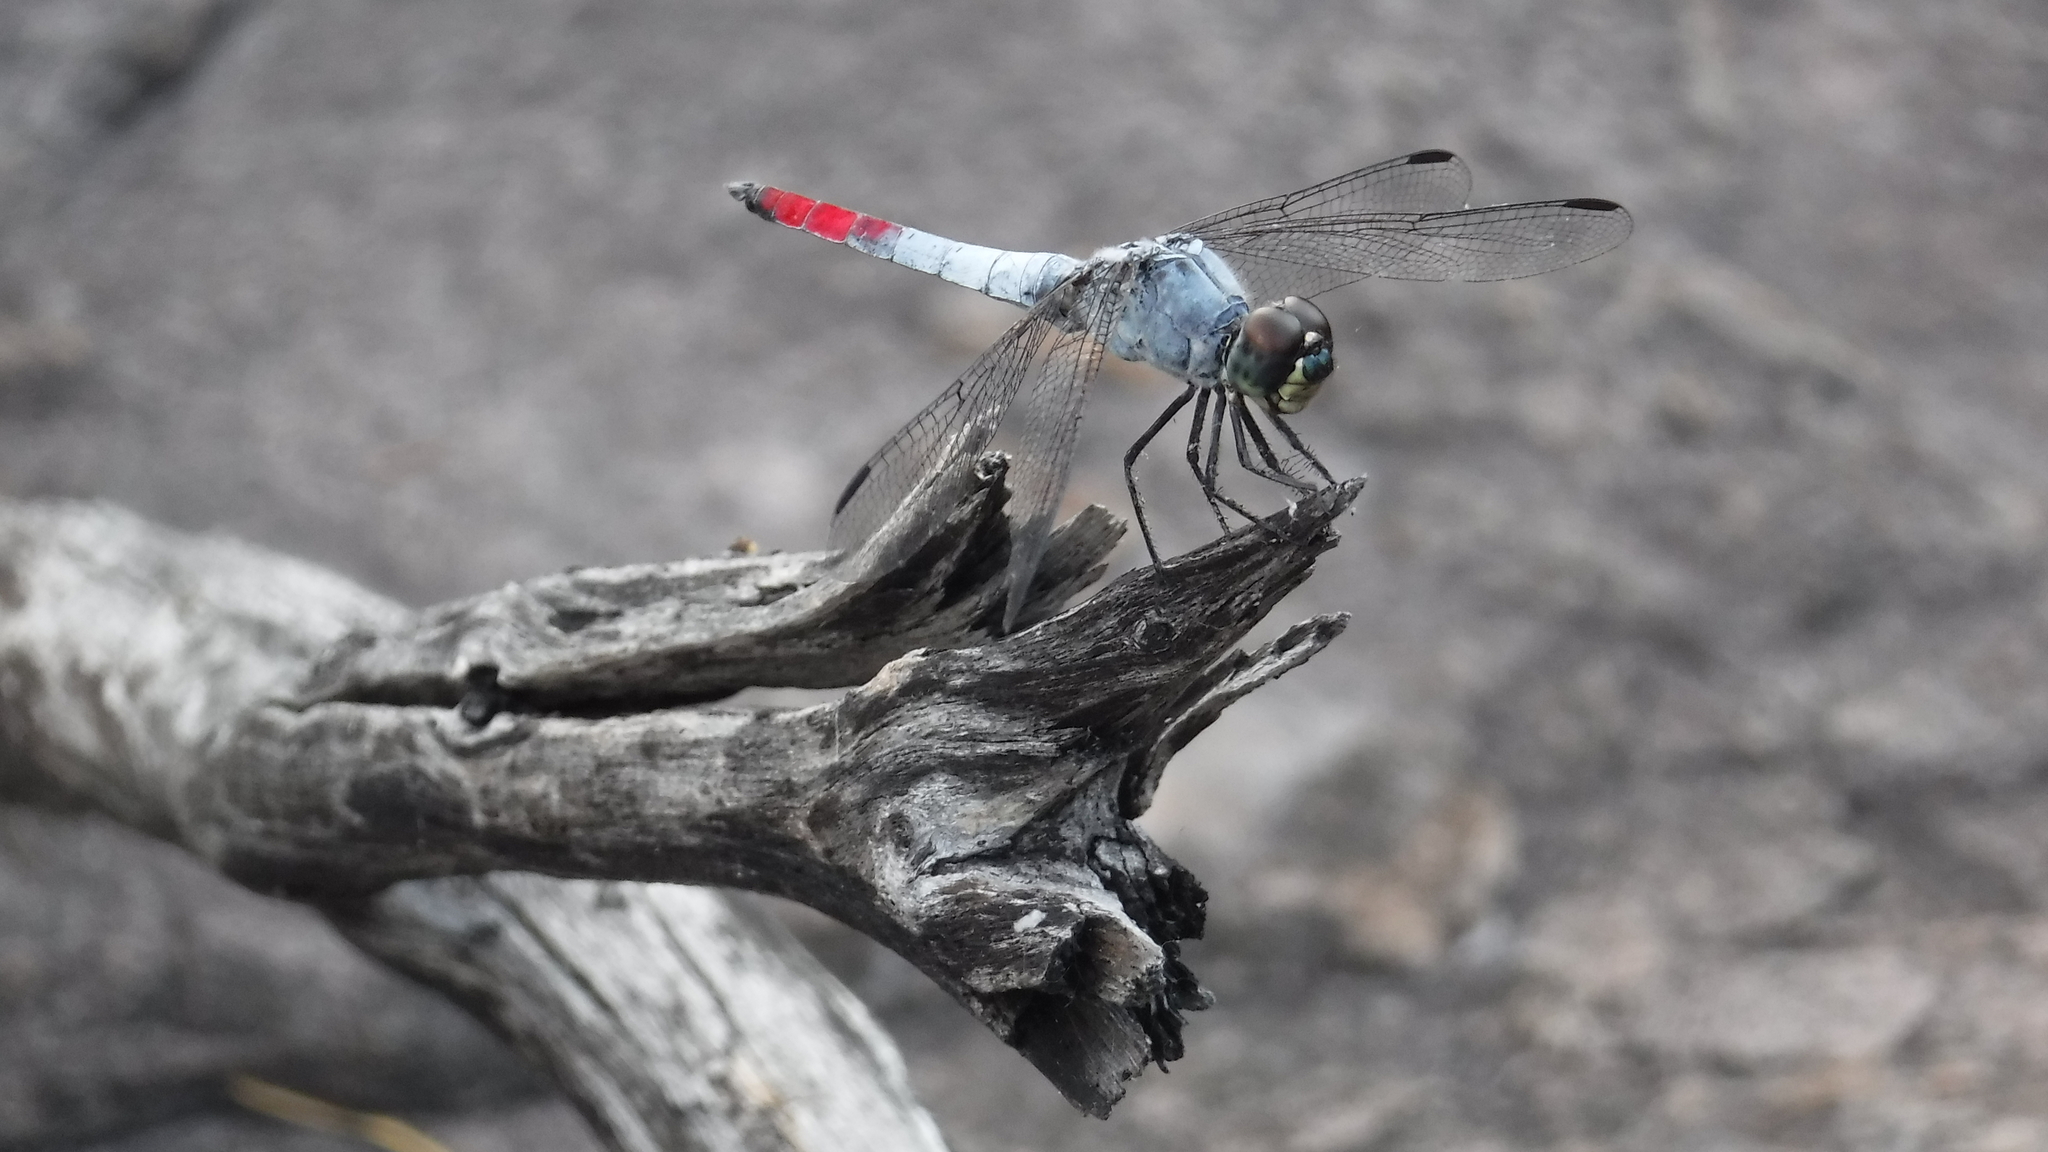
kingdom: Animalia
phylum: Arthropoda
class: Insecta
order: Odonata
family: Libellulidae
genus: Notolibellula
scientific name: Notolibellula bicolor
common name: Bicoloured skimmer
